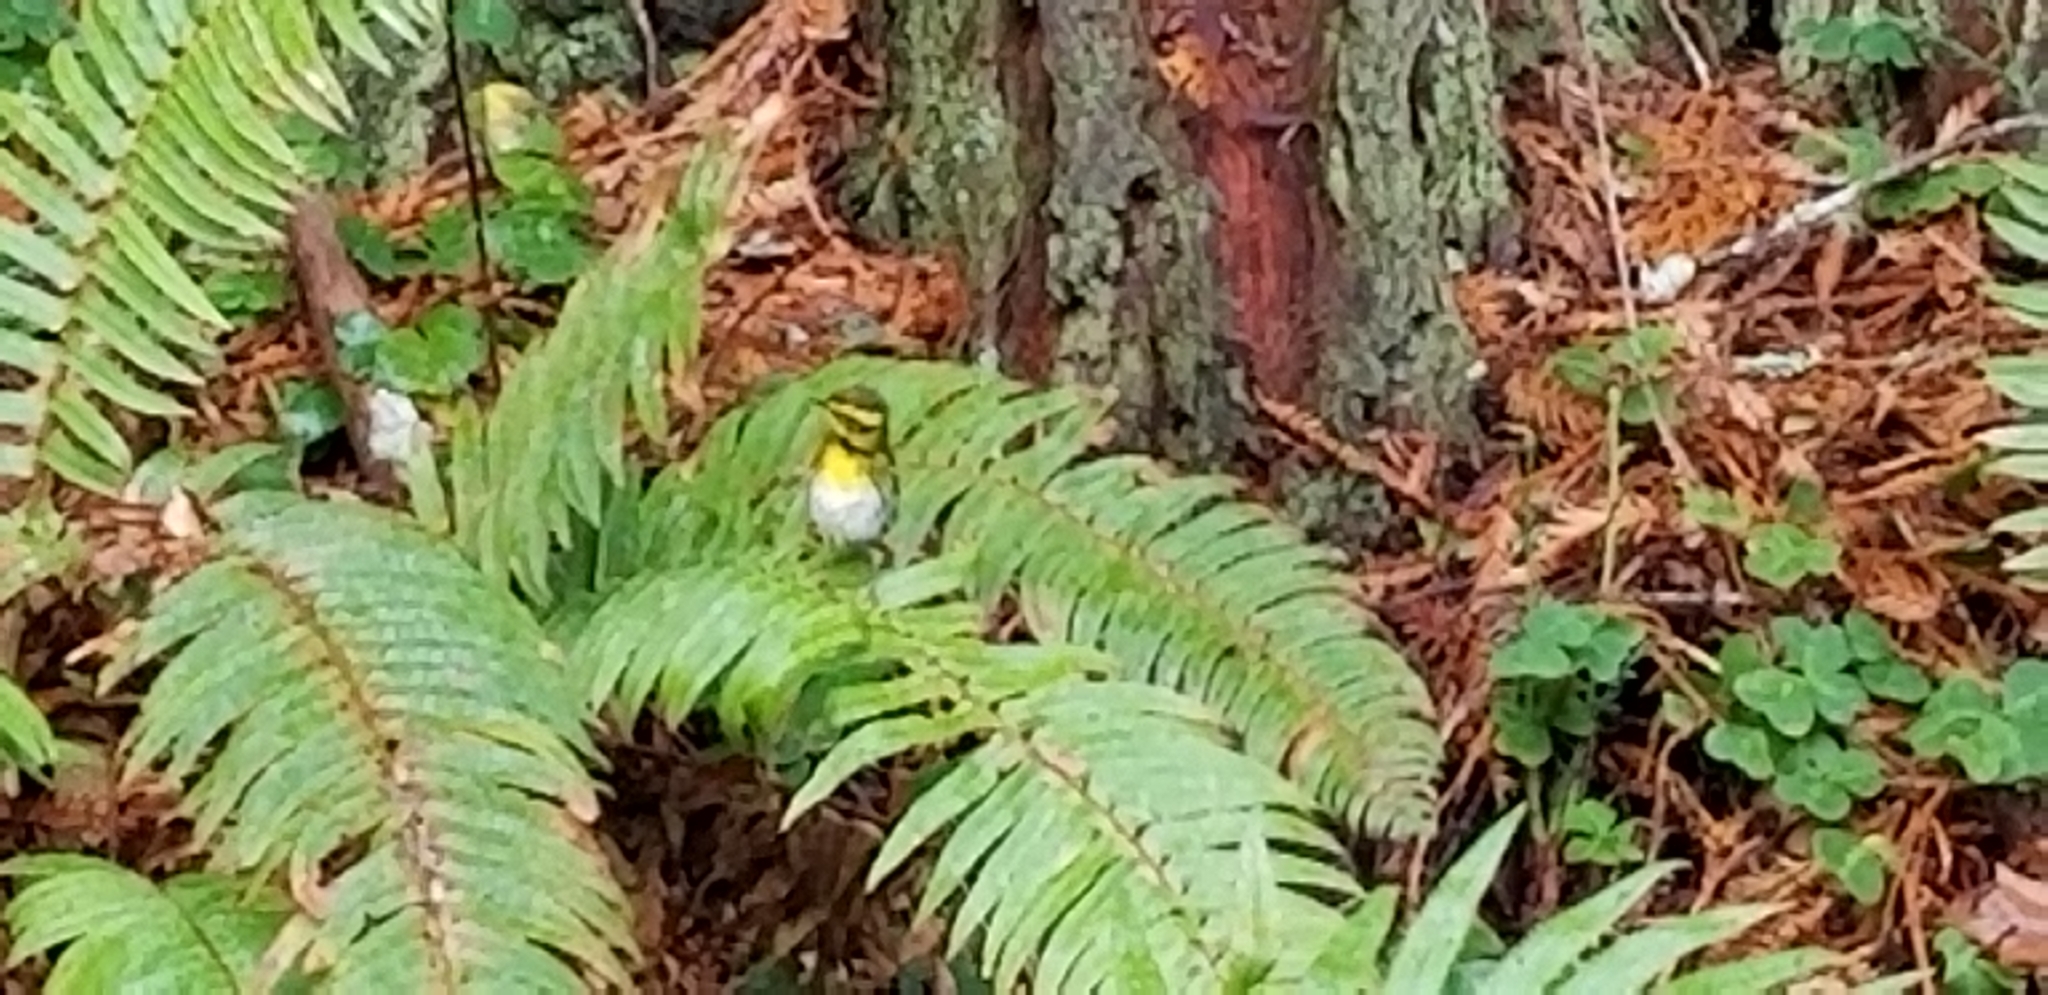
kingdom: Animalia
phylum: Chordata
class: Aves
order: Passeriformes
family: Parulidae
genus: Setophaga
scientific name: Setophaga townsendi
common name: Townsend's warbler
